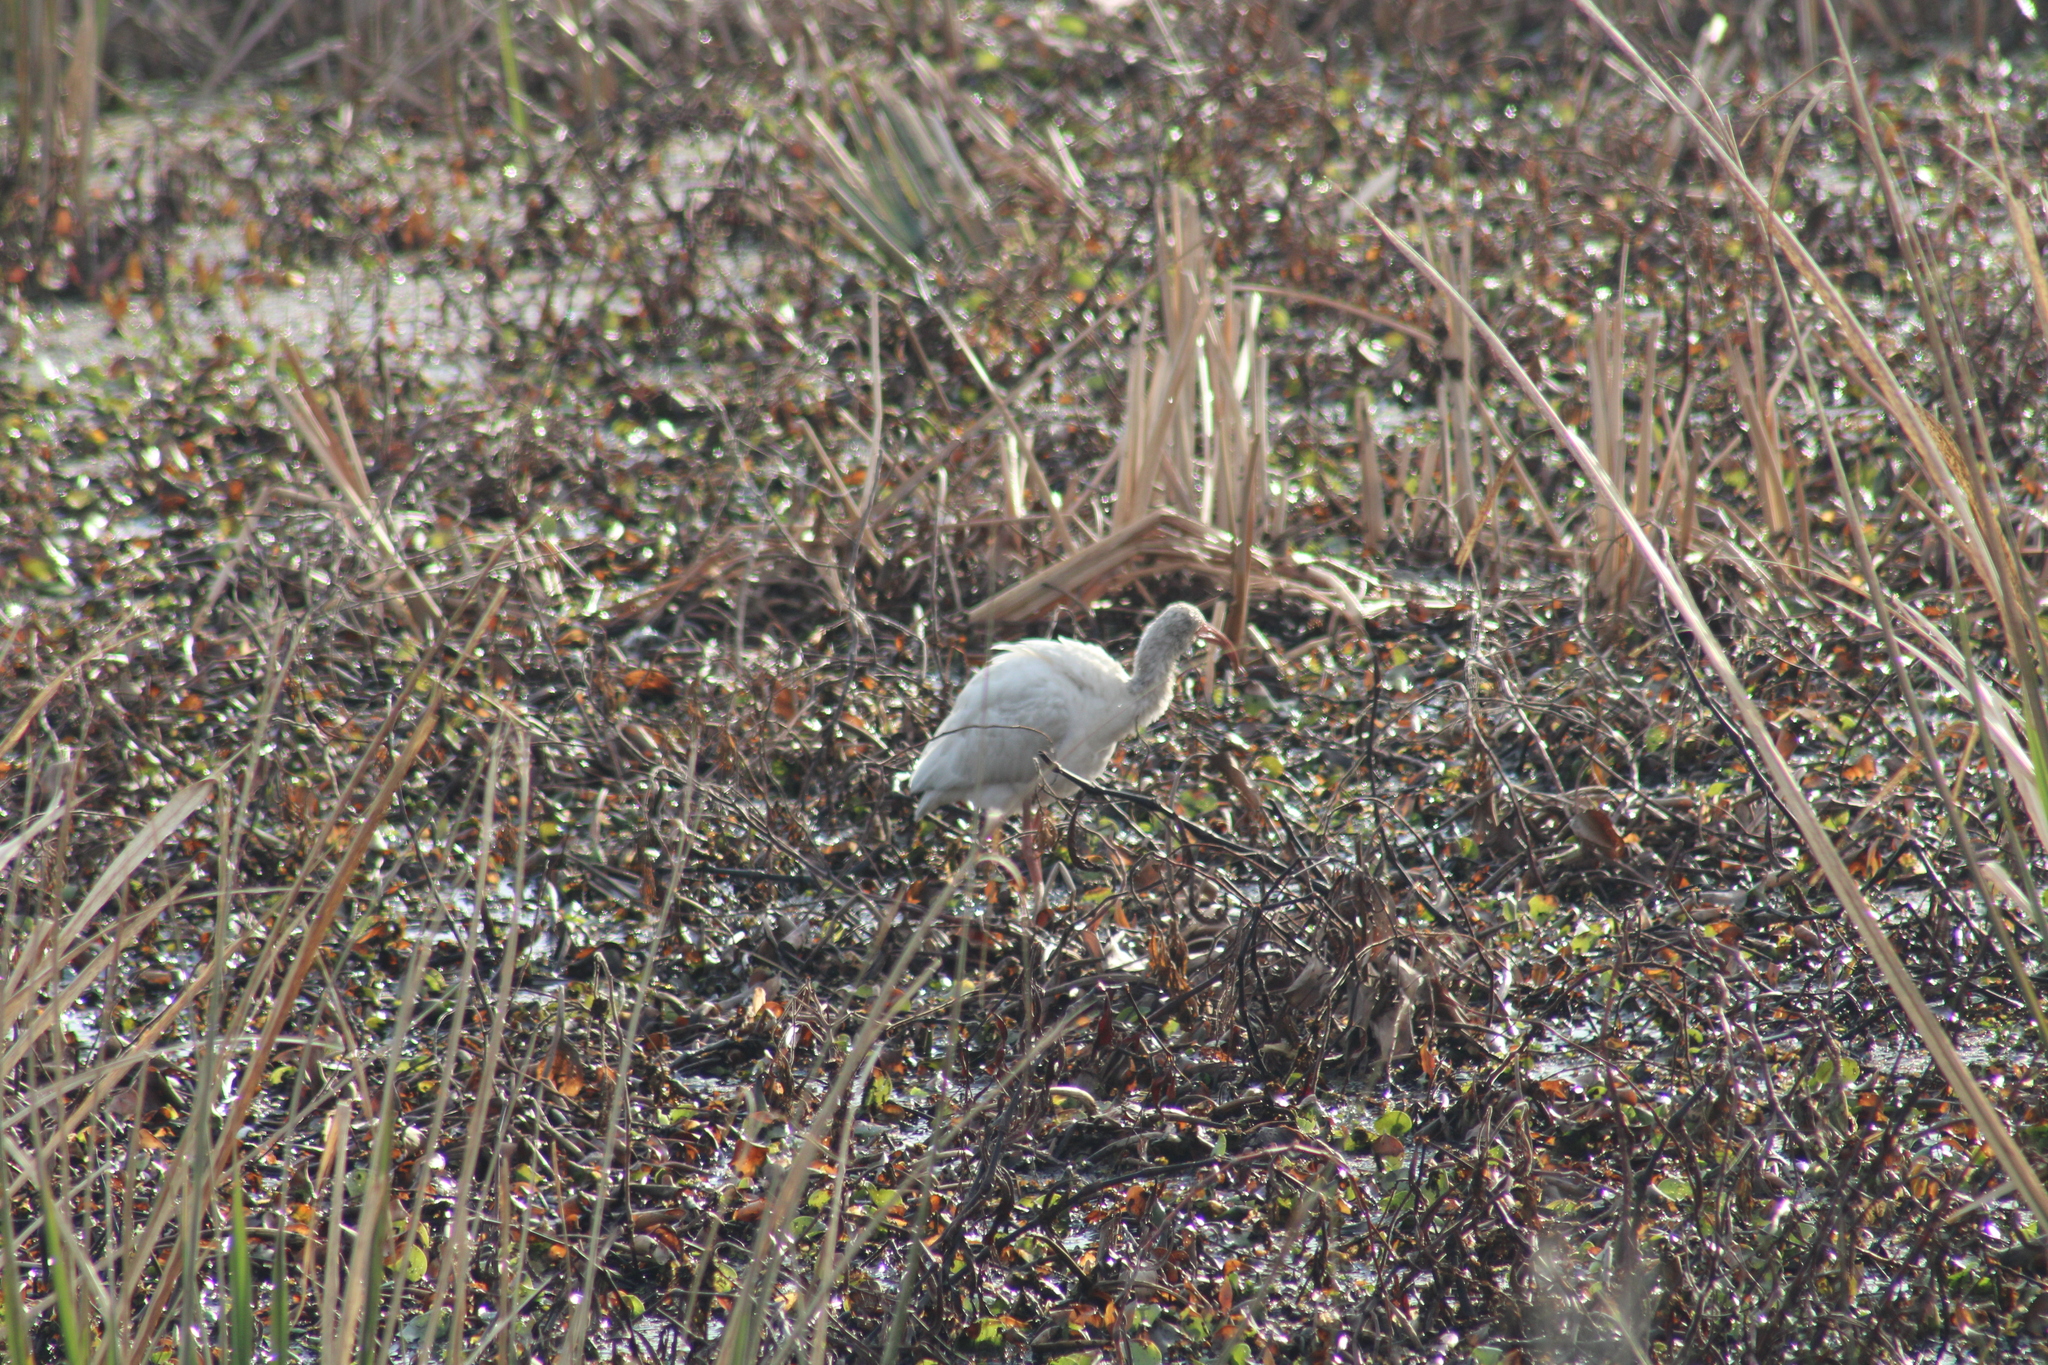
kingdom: Animalia
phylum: Chordata
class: Aves
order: Pelecaniformes
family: Threskiornithidae
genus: Eudocimus
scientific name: Eudocimus albus
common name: White ibis
